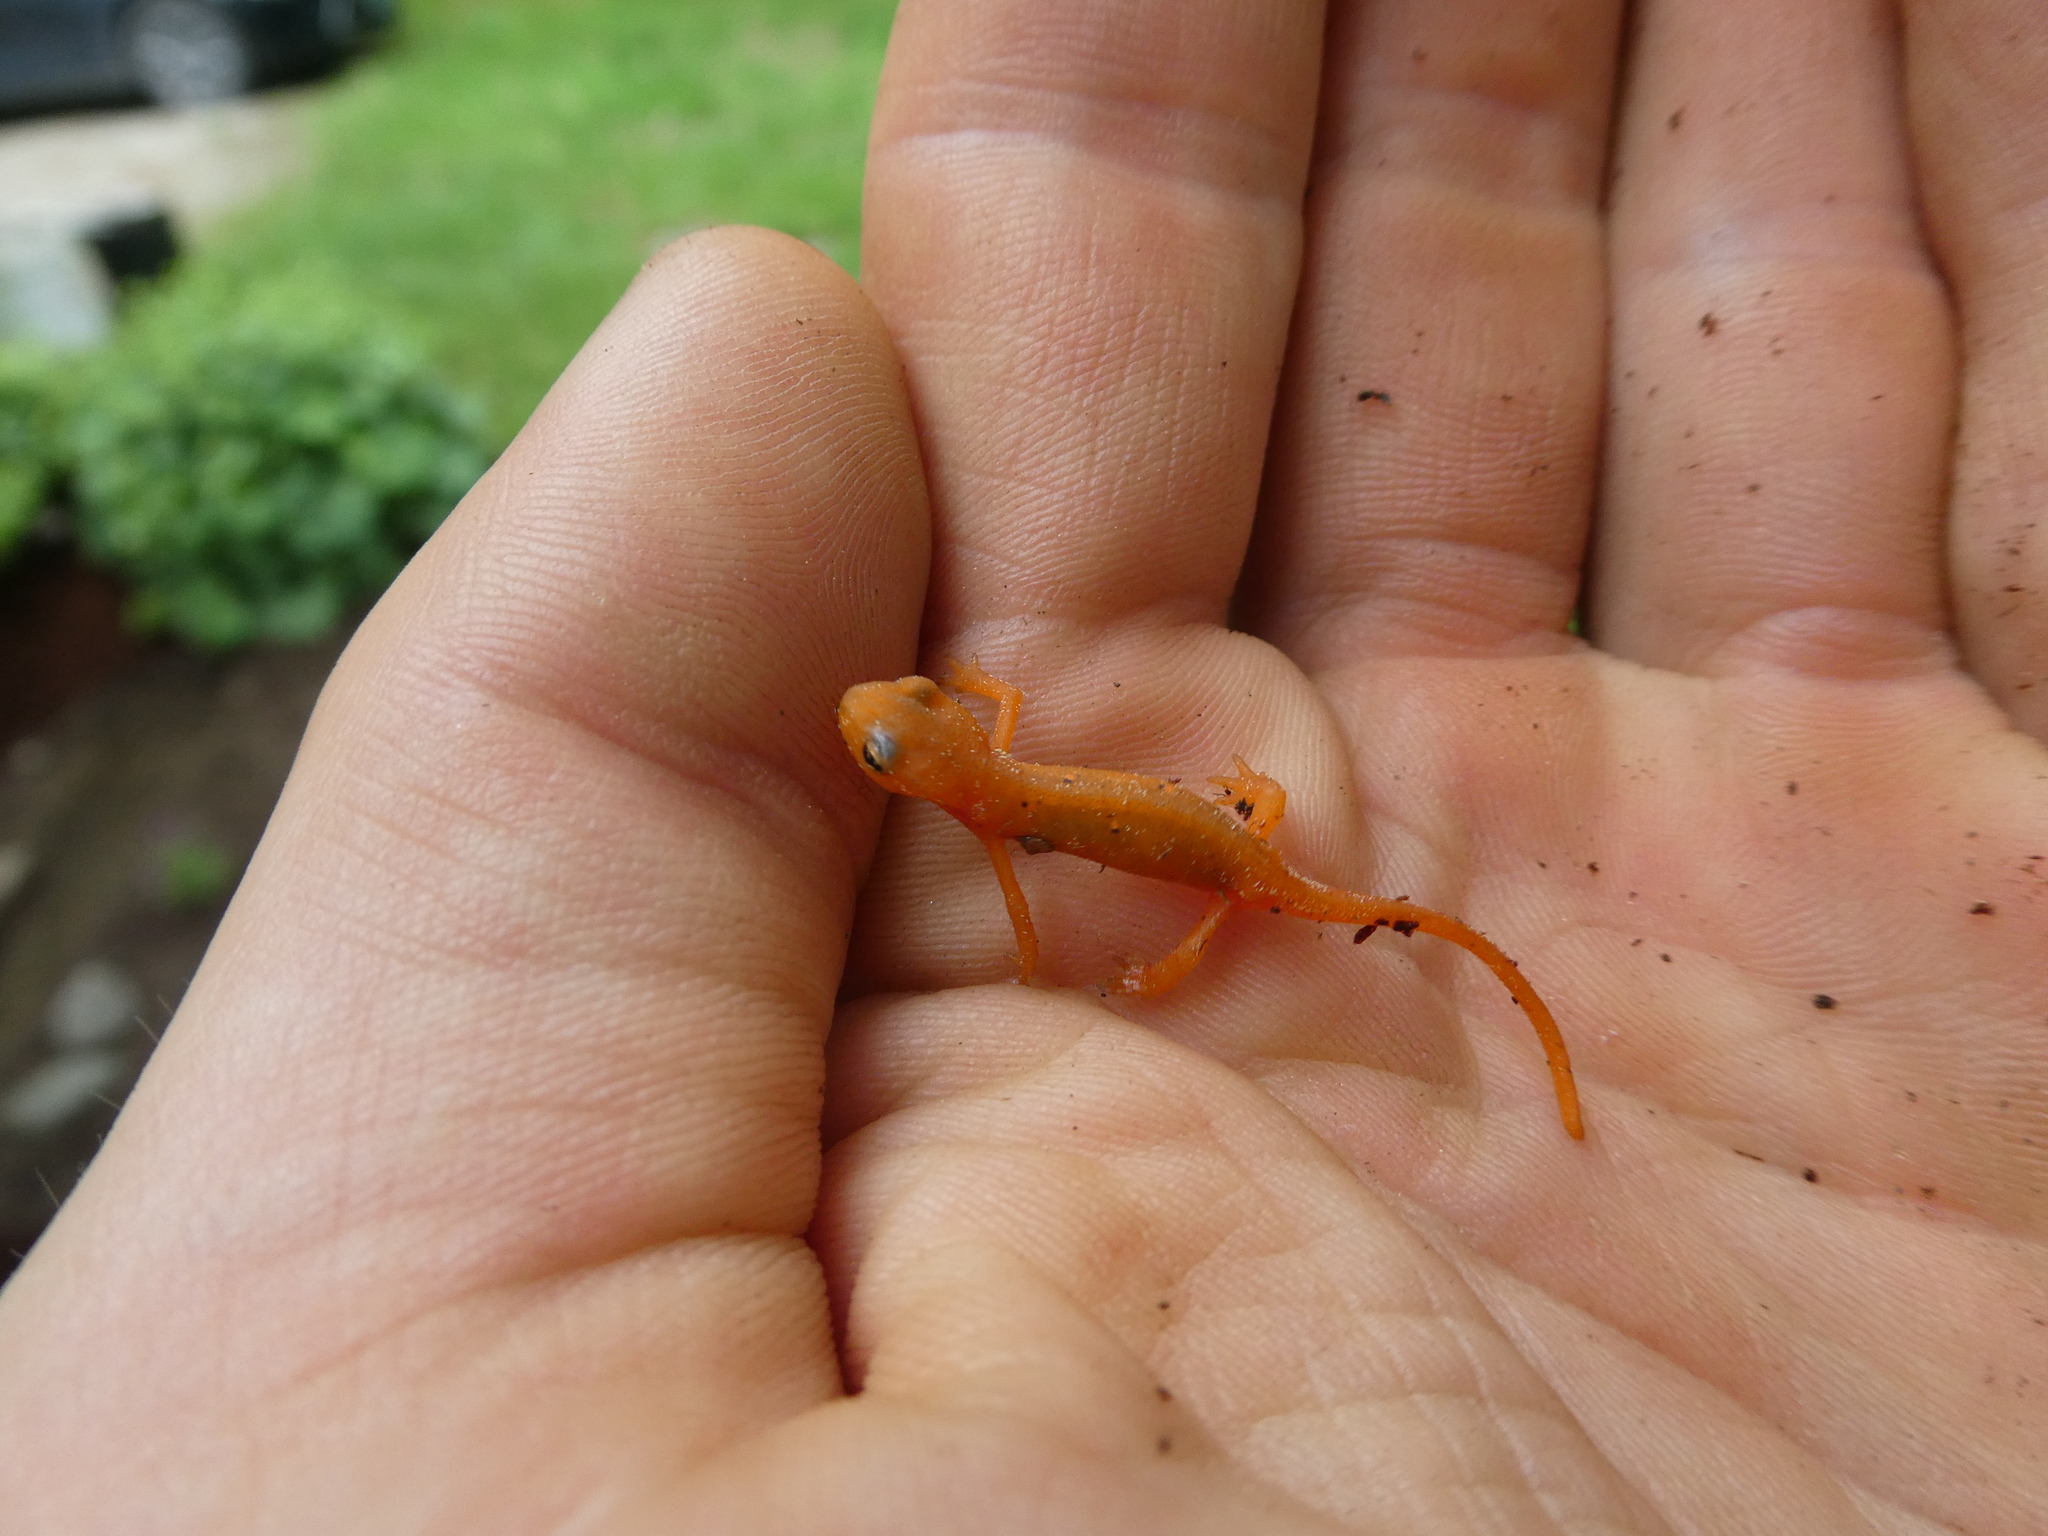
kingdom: Animalia
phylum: Chordata
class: Amphibia
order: Caudata
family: Salamandridae
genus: Notophthalmus
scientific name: Notophthalmus viridescens
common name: Eastern newt
